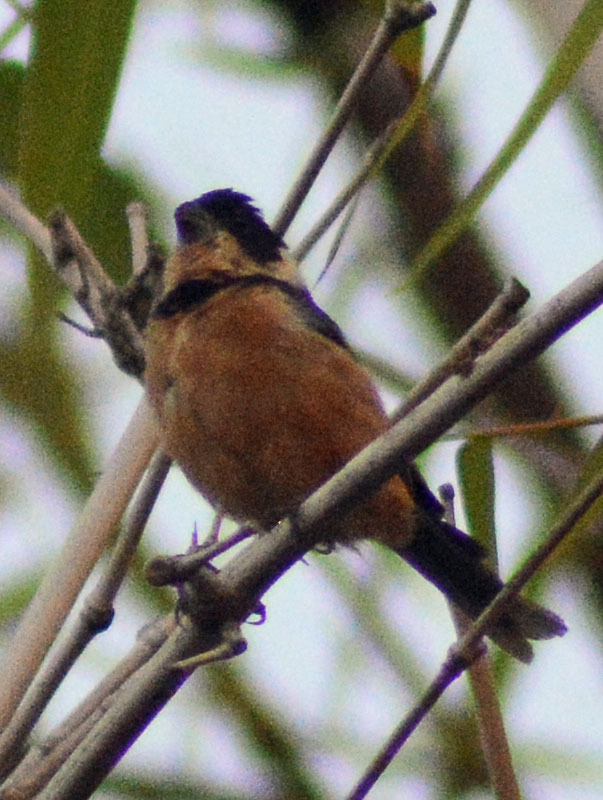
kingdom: Animalia
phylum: Chordata
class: Aves
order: Passeriformes
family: Thraupidae
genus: Sporophila
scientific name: Sporophila torqueola
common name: White-collared seedeater
